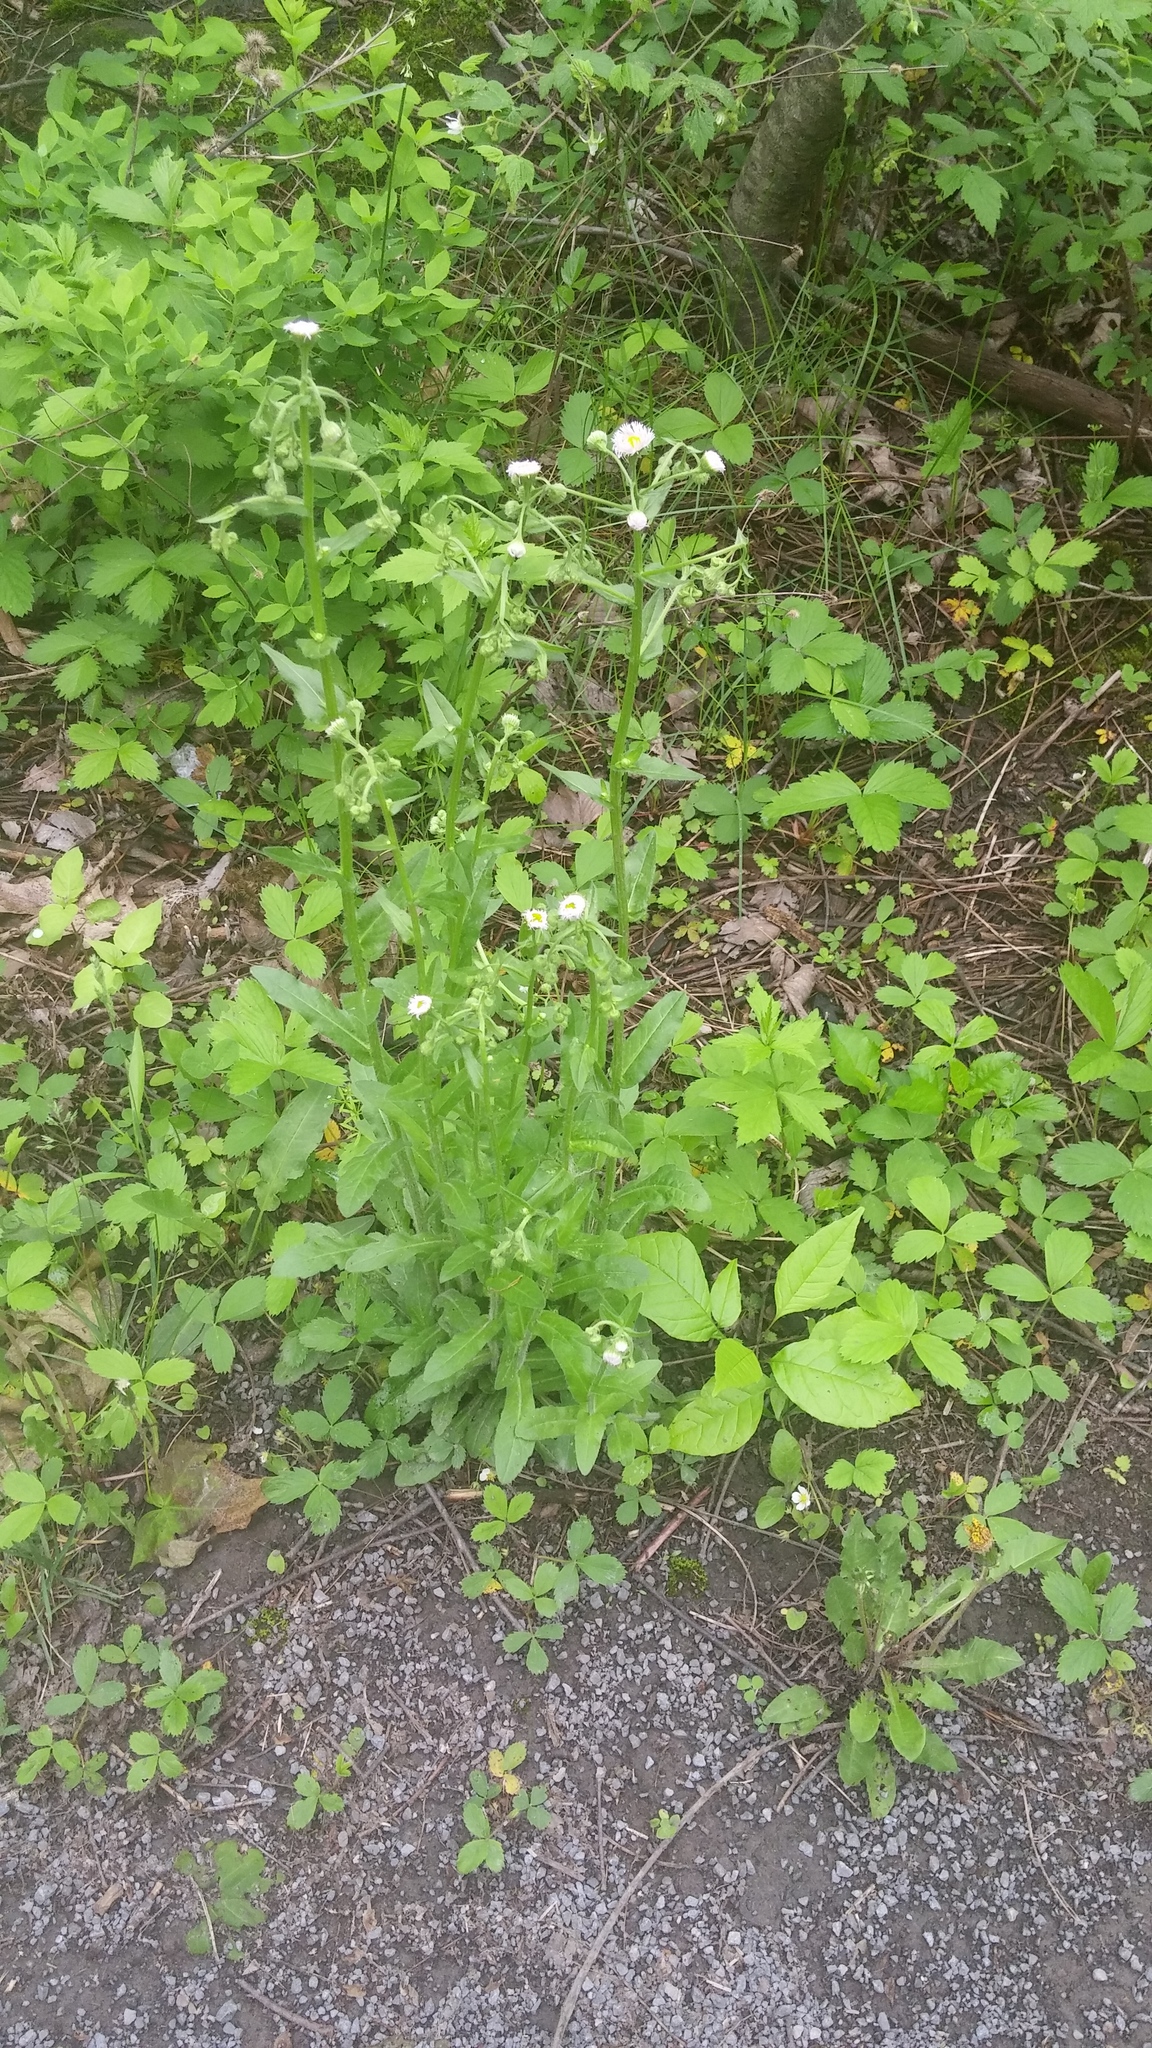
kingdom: Plantae
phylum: Tracheophyta
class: Magnoliopsida
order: Asterales
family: Asteraceae
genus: Erigeron
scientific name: Erigeron philadelphicus
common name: Robin's-plantain
